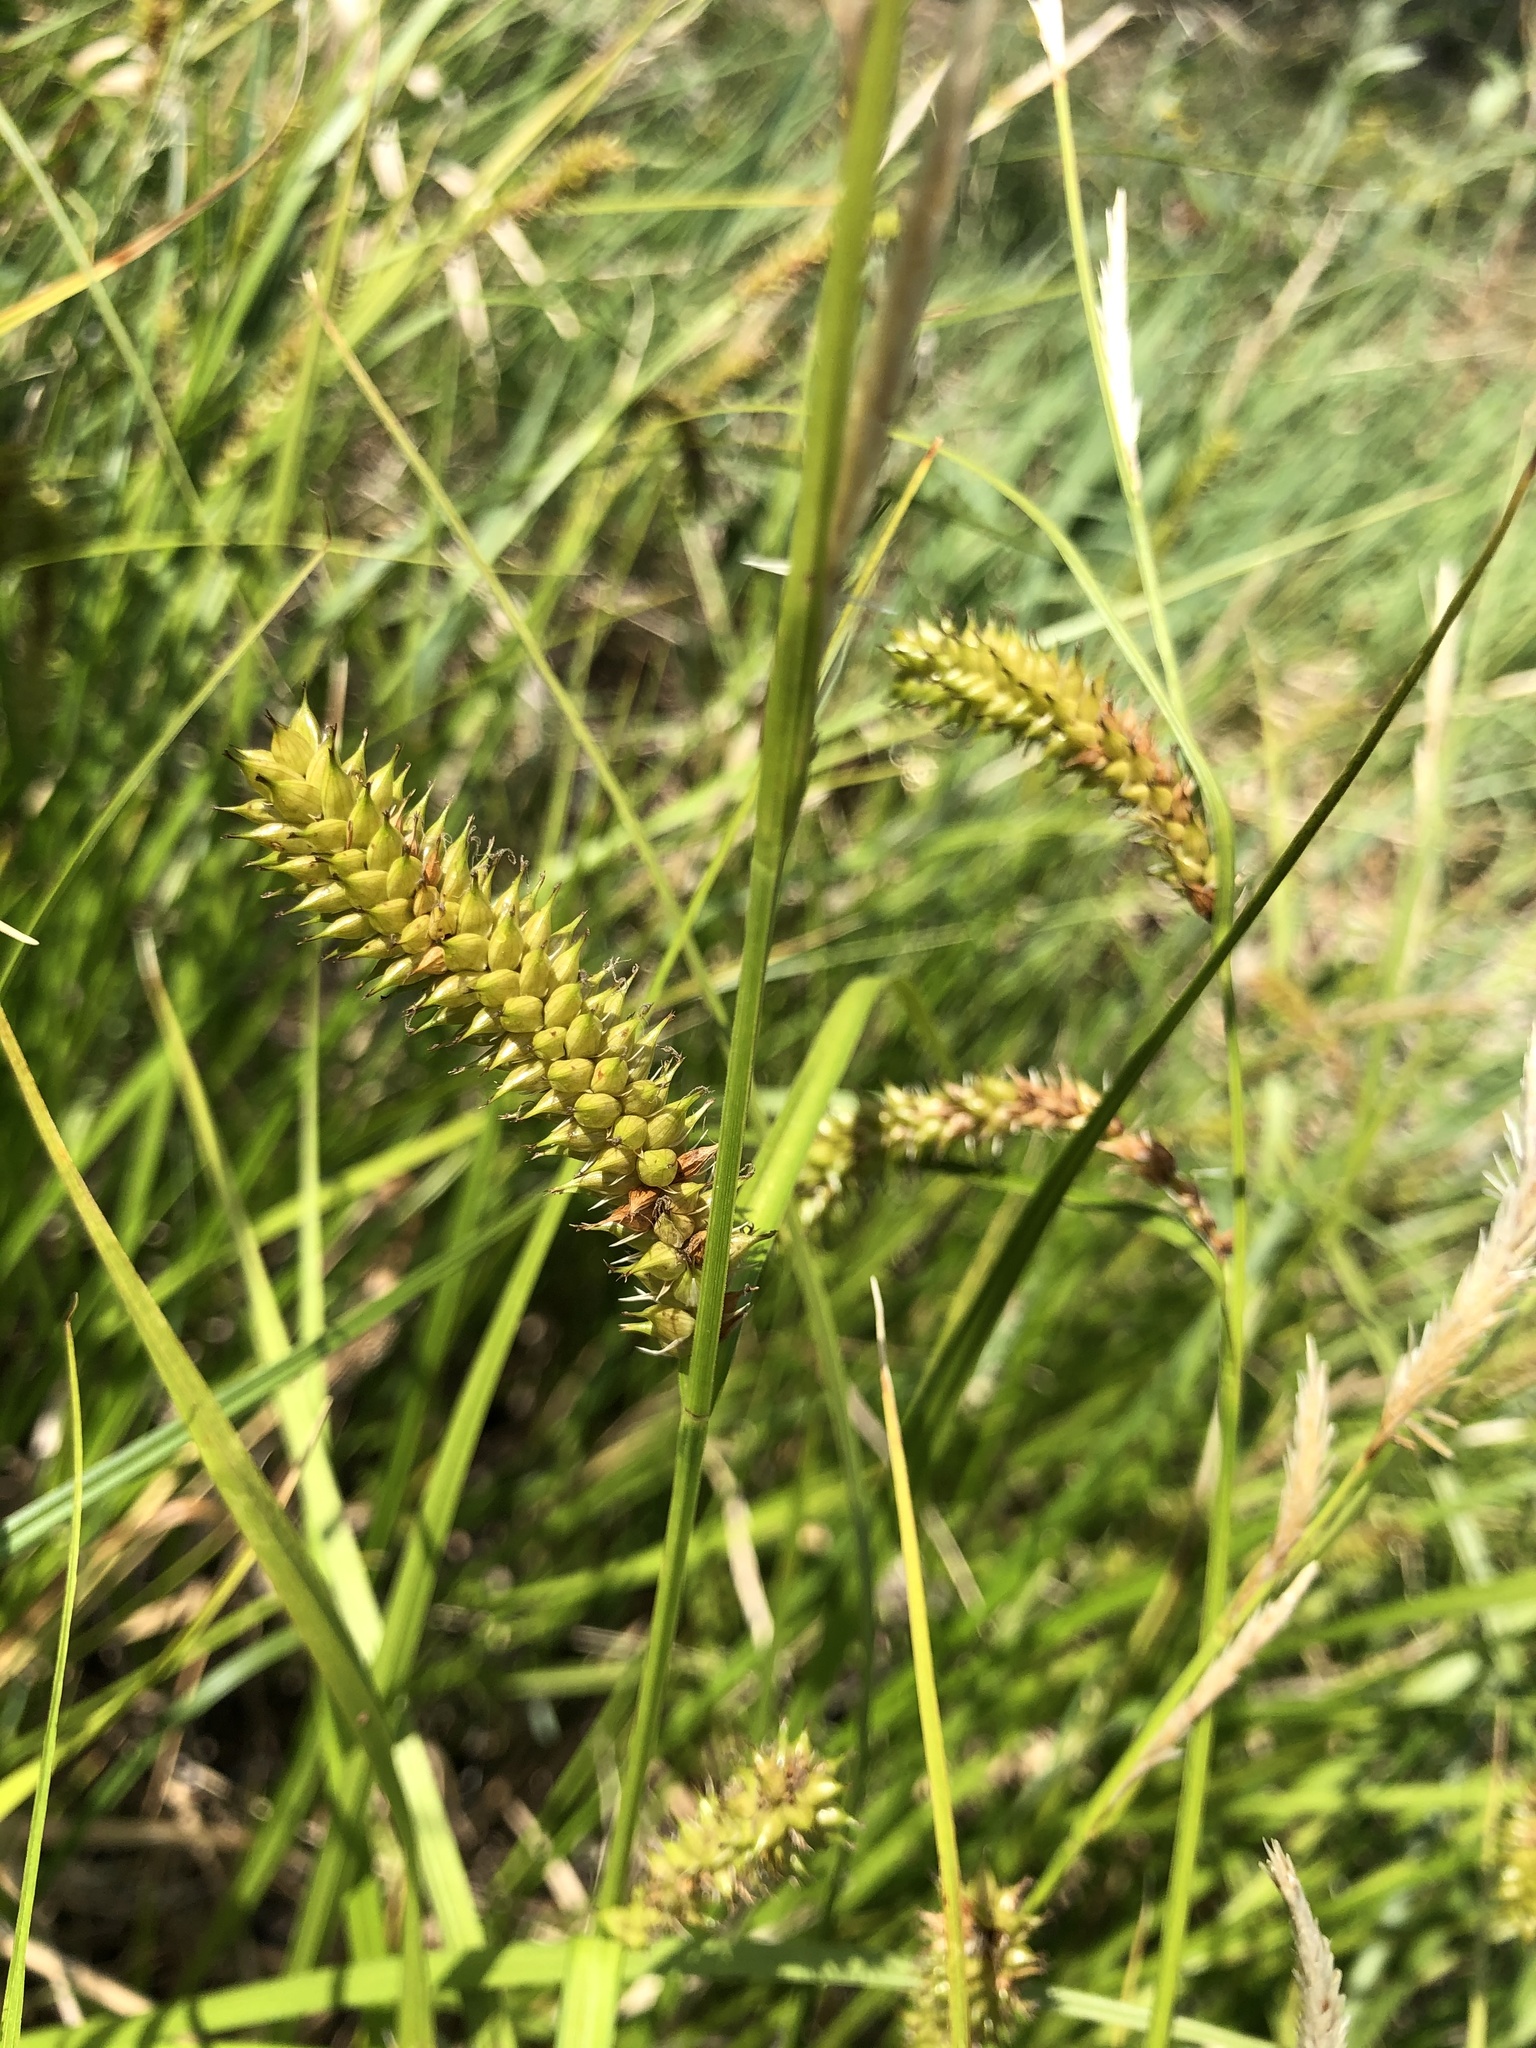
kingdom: Plantae
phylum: Tracheophyta
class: Liliopsida
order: Poales
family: Cyperaceae
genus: Carex
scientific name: Carex vesicaria
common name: Bladder-sedge
